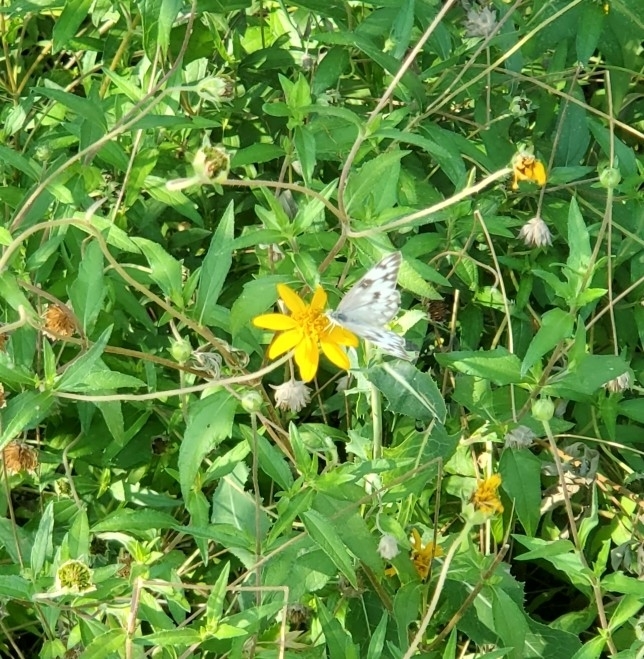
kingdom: Animalia
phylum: Arthropoda
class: Insecta
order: Lepidoptera
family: Pieridae
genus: Pontia
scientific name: Pontia protodice
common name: Checkered white
